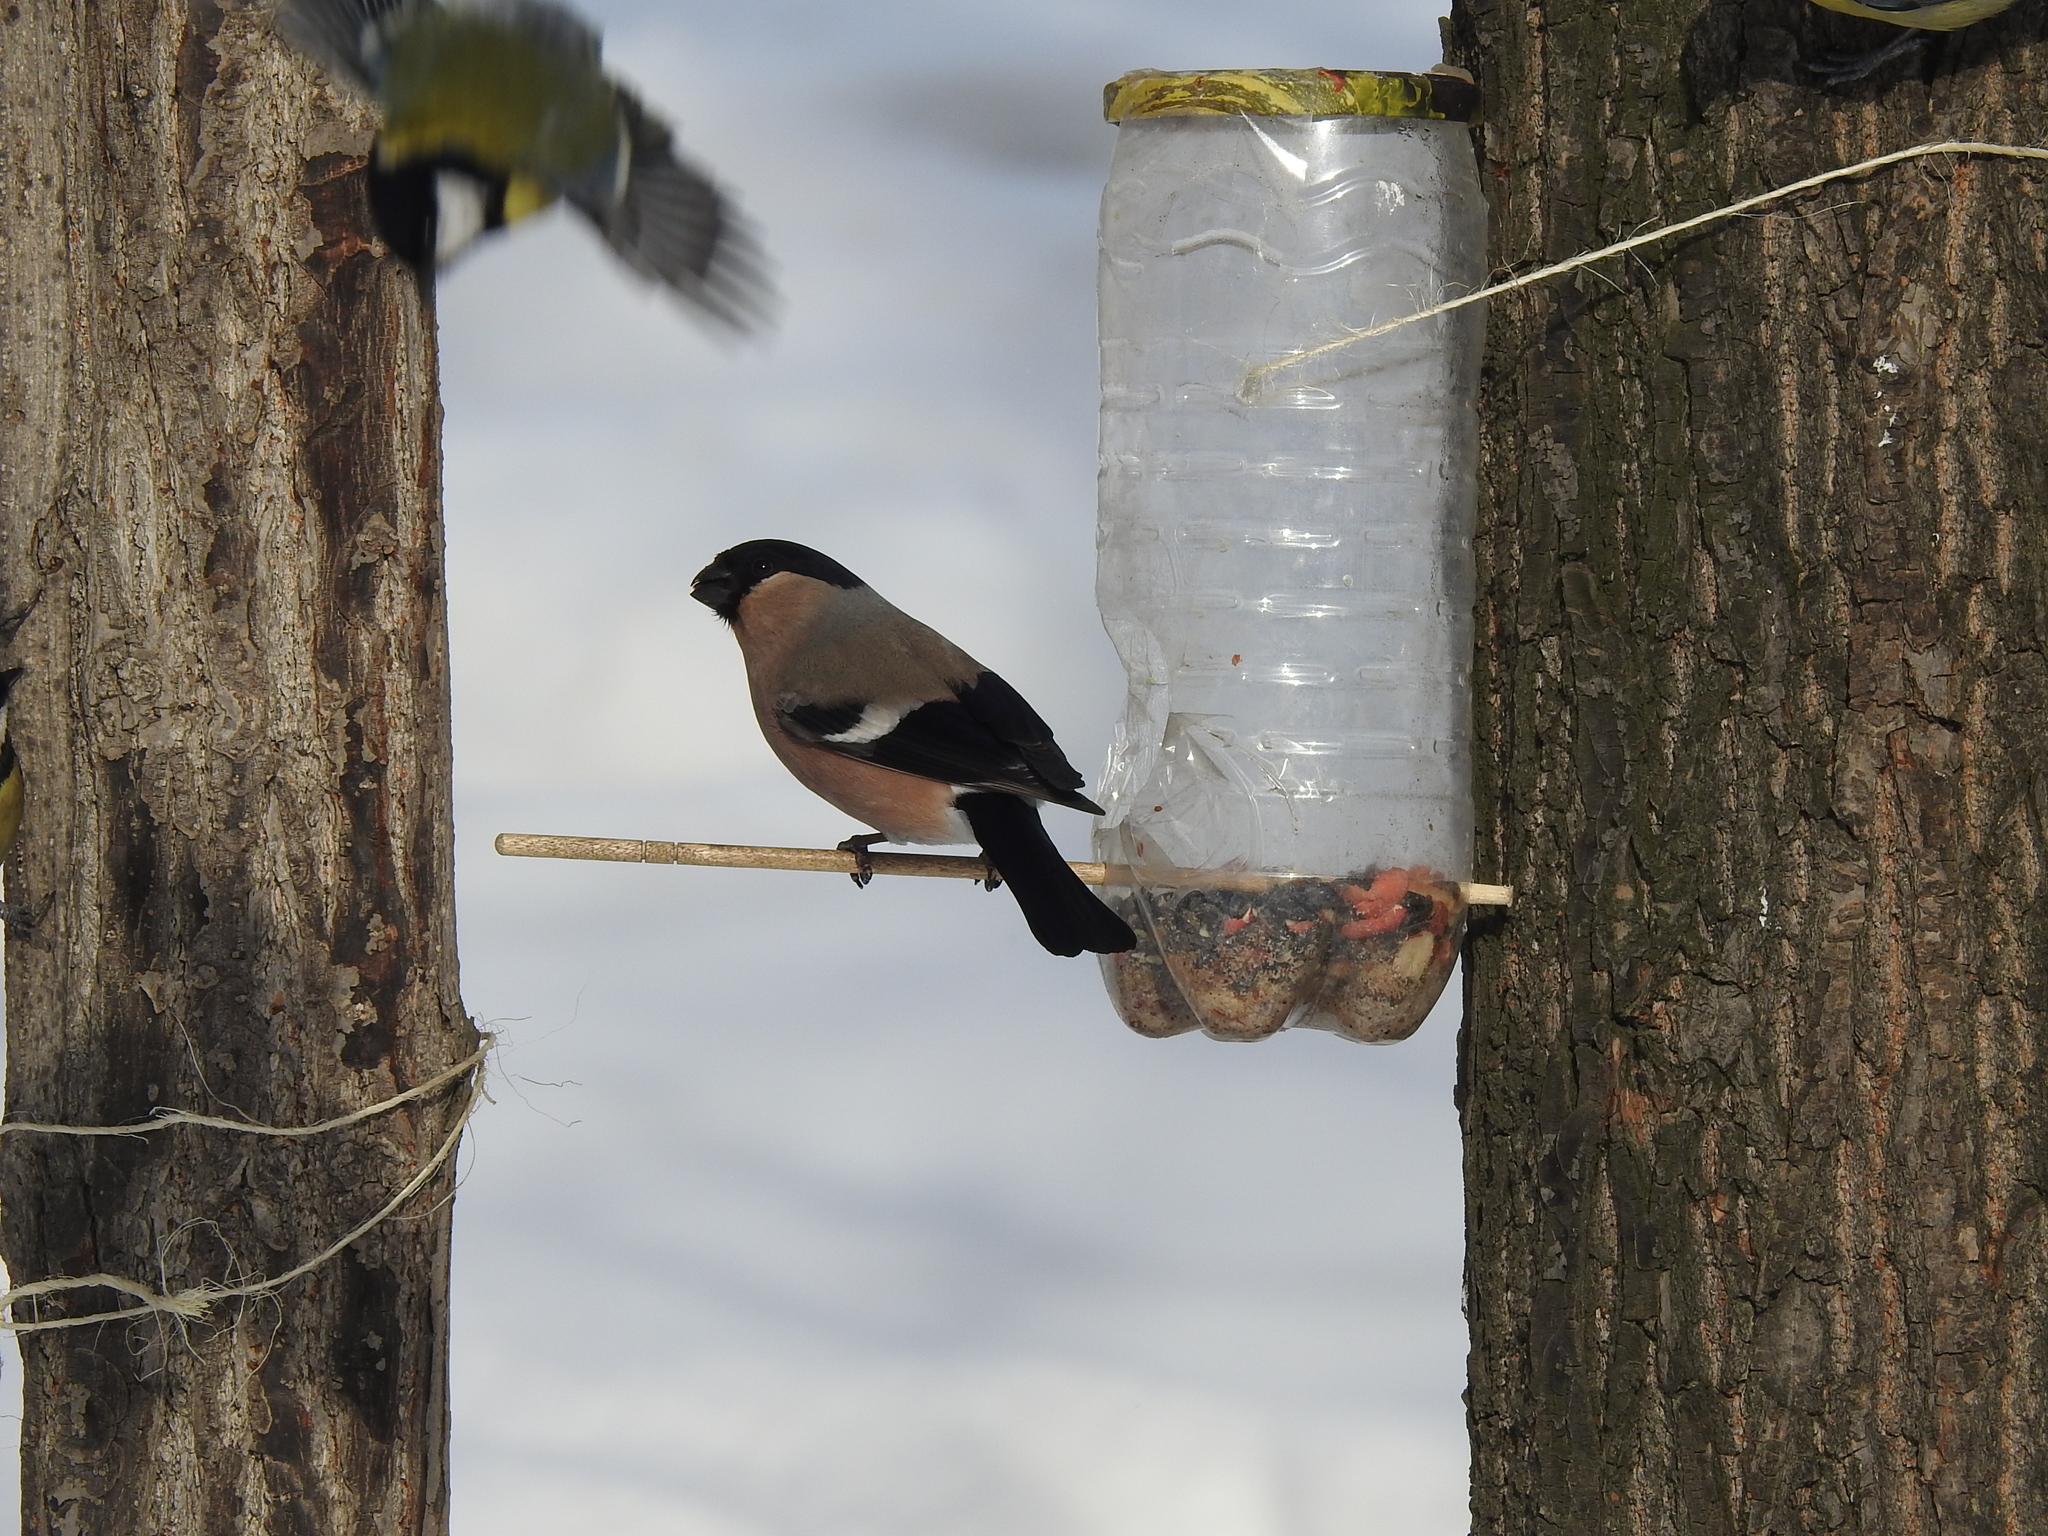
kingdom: Animalia
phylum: Chordata
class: Aves
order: Passeriformes
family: Fringillidae
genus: Pyrrhula
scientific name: Pyrrhula pyrrhula
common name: Eurasian bullfinch
